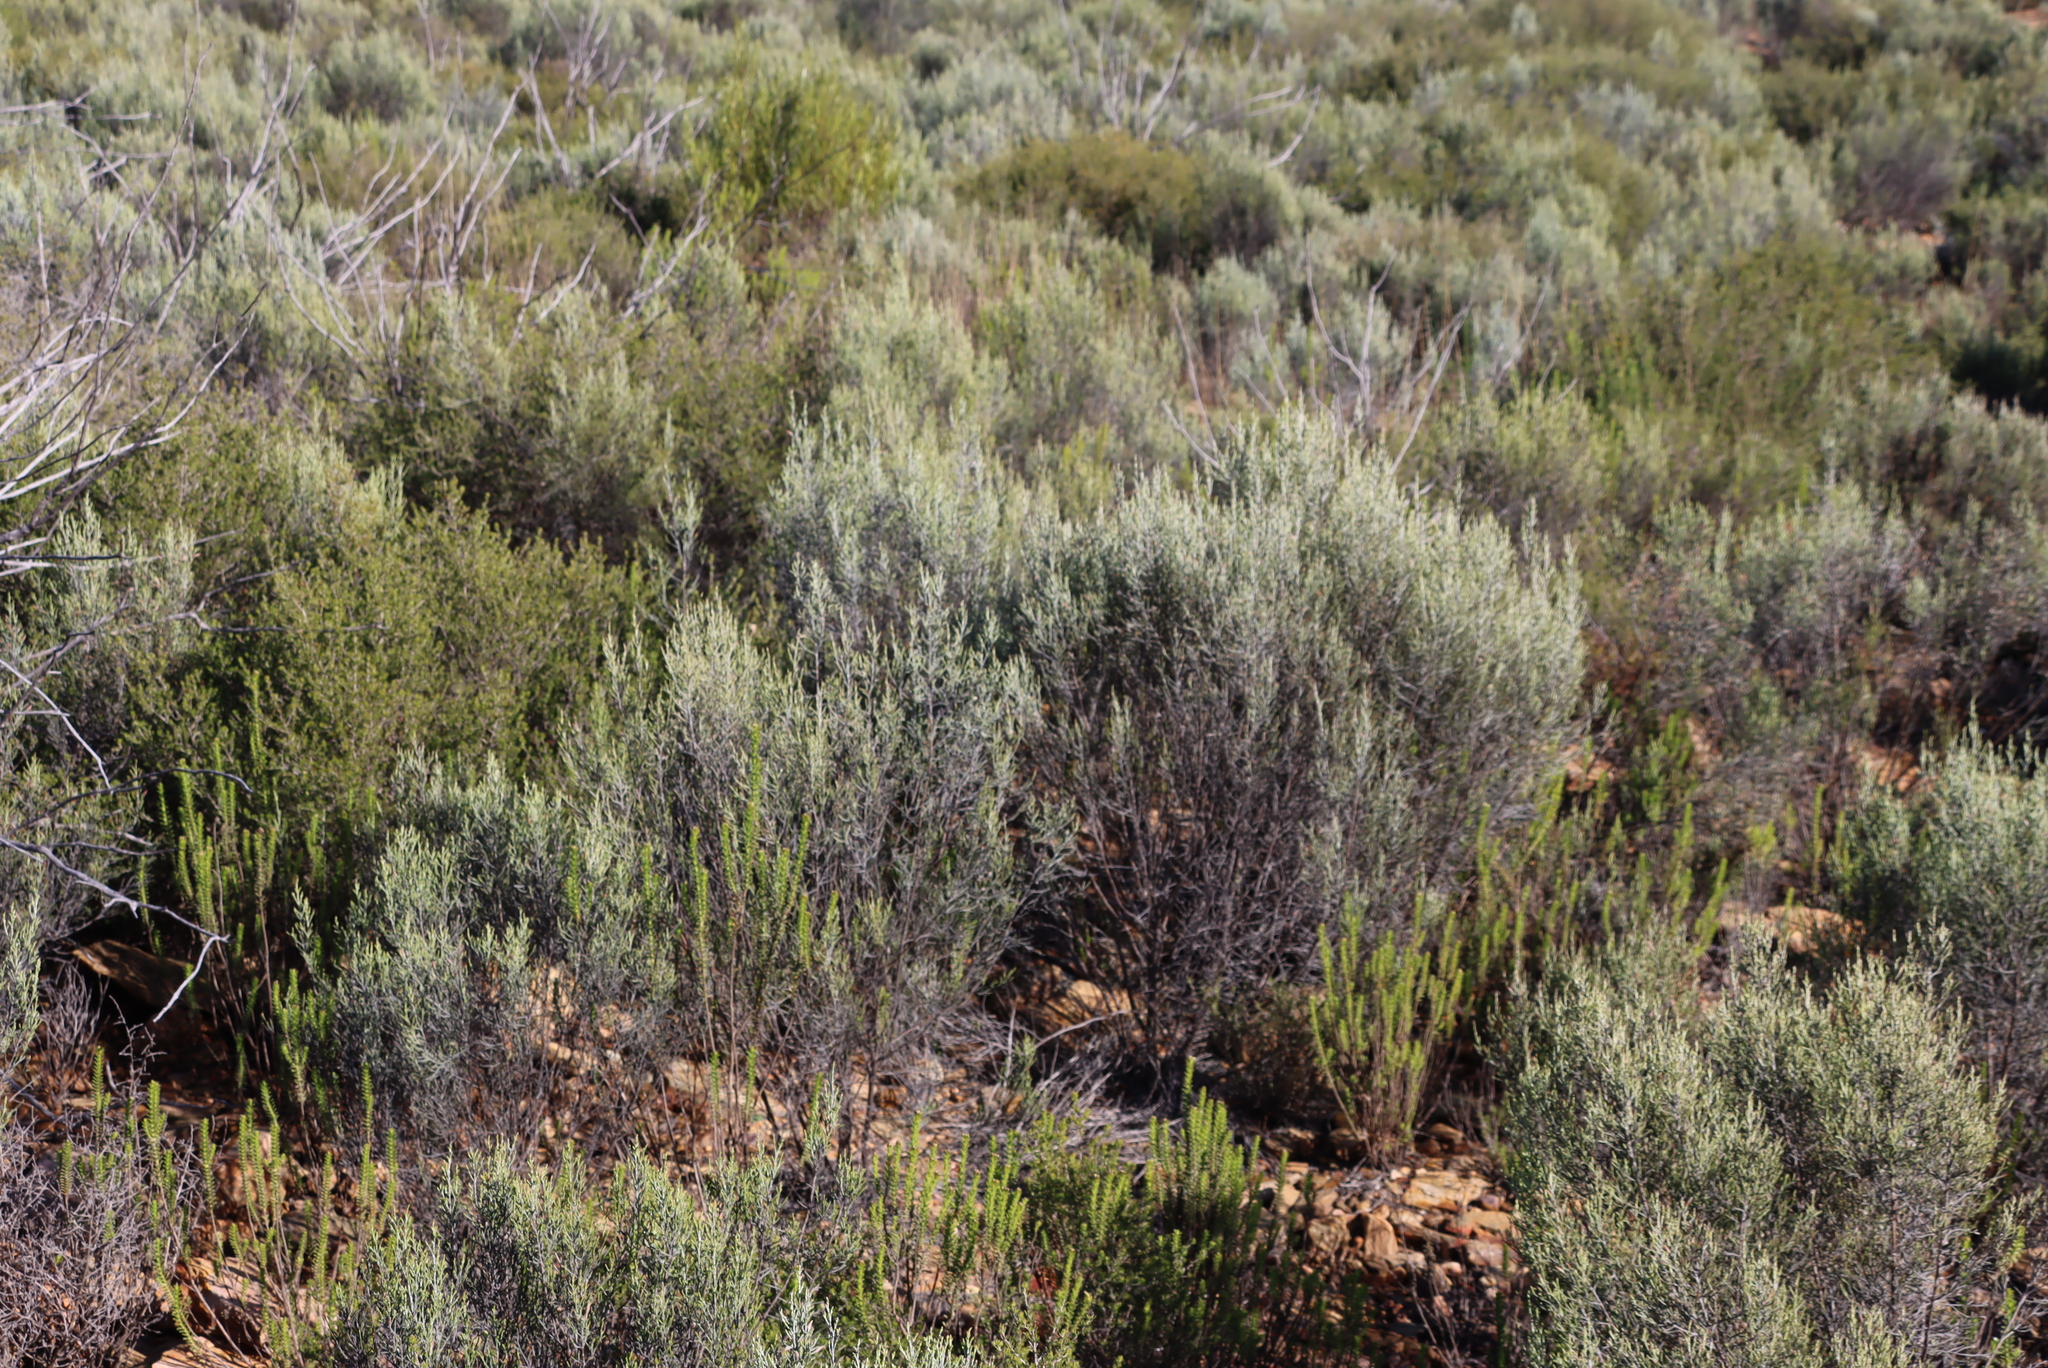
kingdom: Plantae
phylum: Tracheophyta
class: Magnoliopsida
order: Asterales
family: Asteraceae
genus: Dicerothamnus
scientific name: Dicerothamnus rhinocerotis
